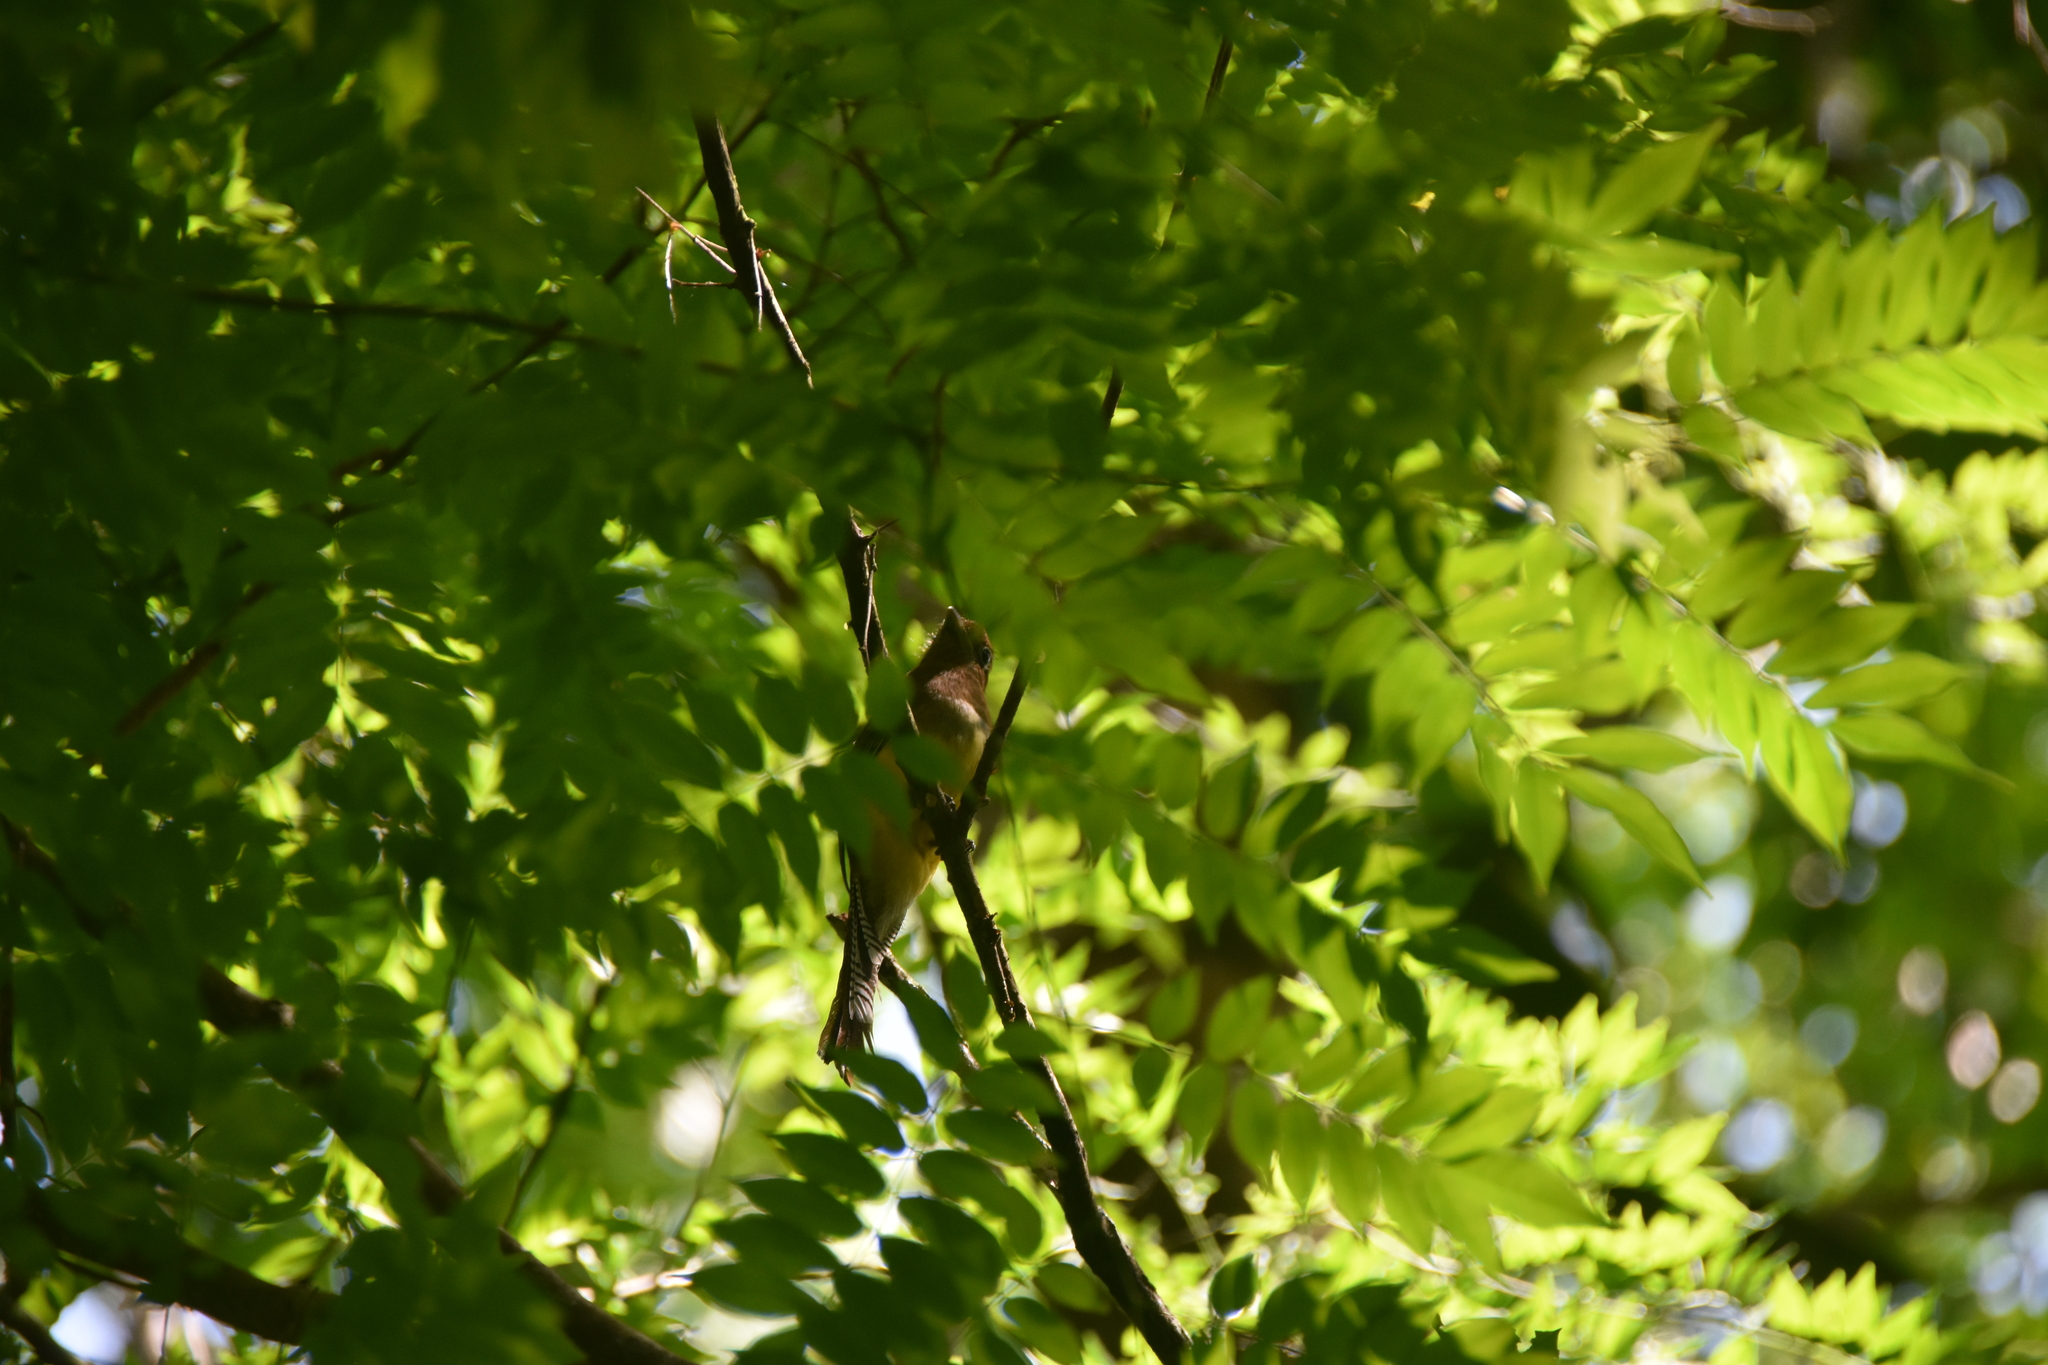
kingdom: Animalia
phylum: Chordata
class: Aves
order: Trogoniformes
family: Trogonidae
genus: Trogon
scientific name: Trogon rufus
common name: Black-throated trogon
